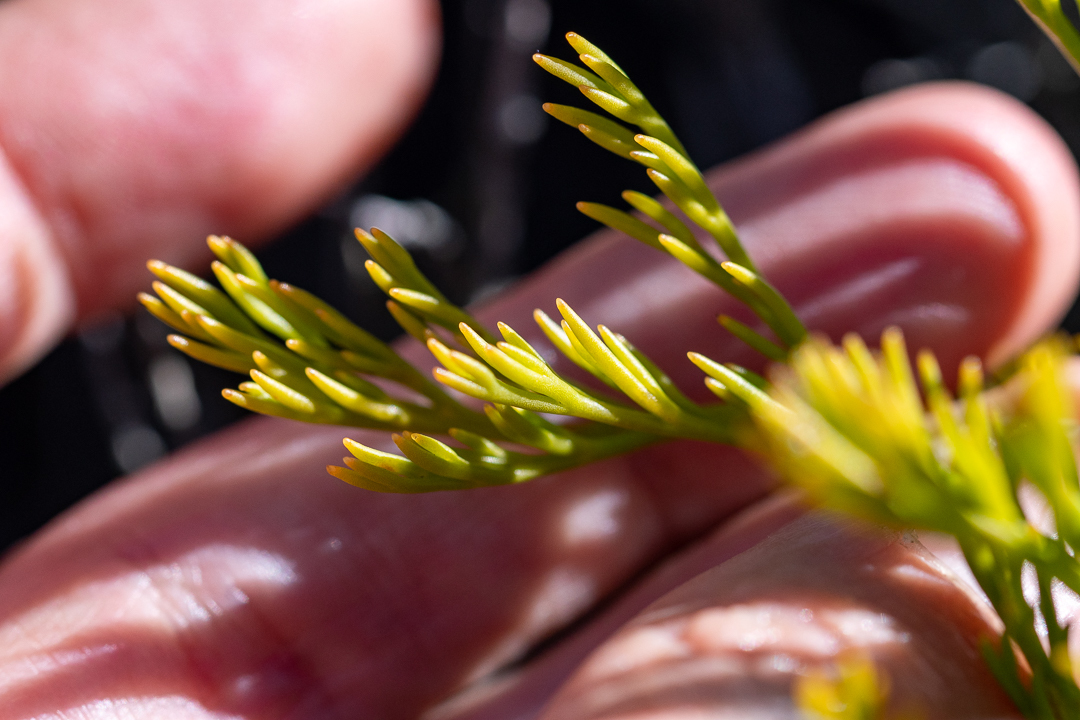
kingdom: Plantae
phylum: Tracheophyta
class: Magnoliopsida
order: Proteales
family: Proteaceae
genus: Serruria
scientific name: Serruria elongata
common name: Long-stalk spiderhead
